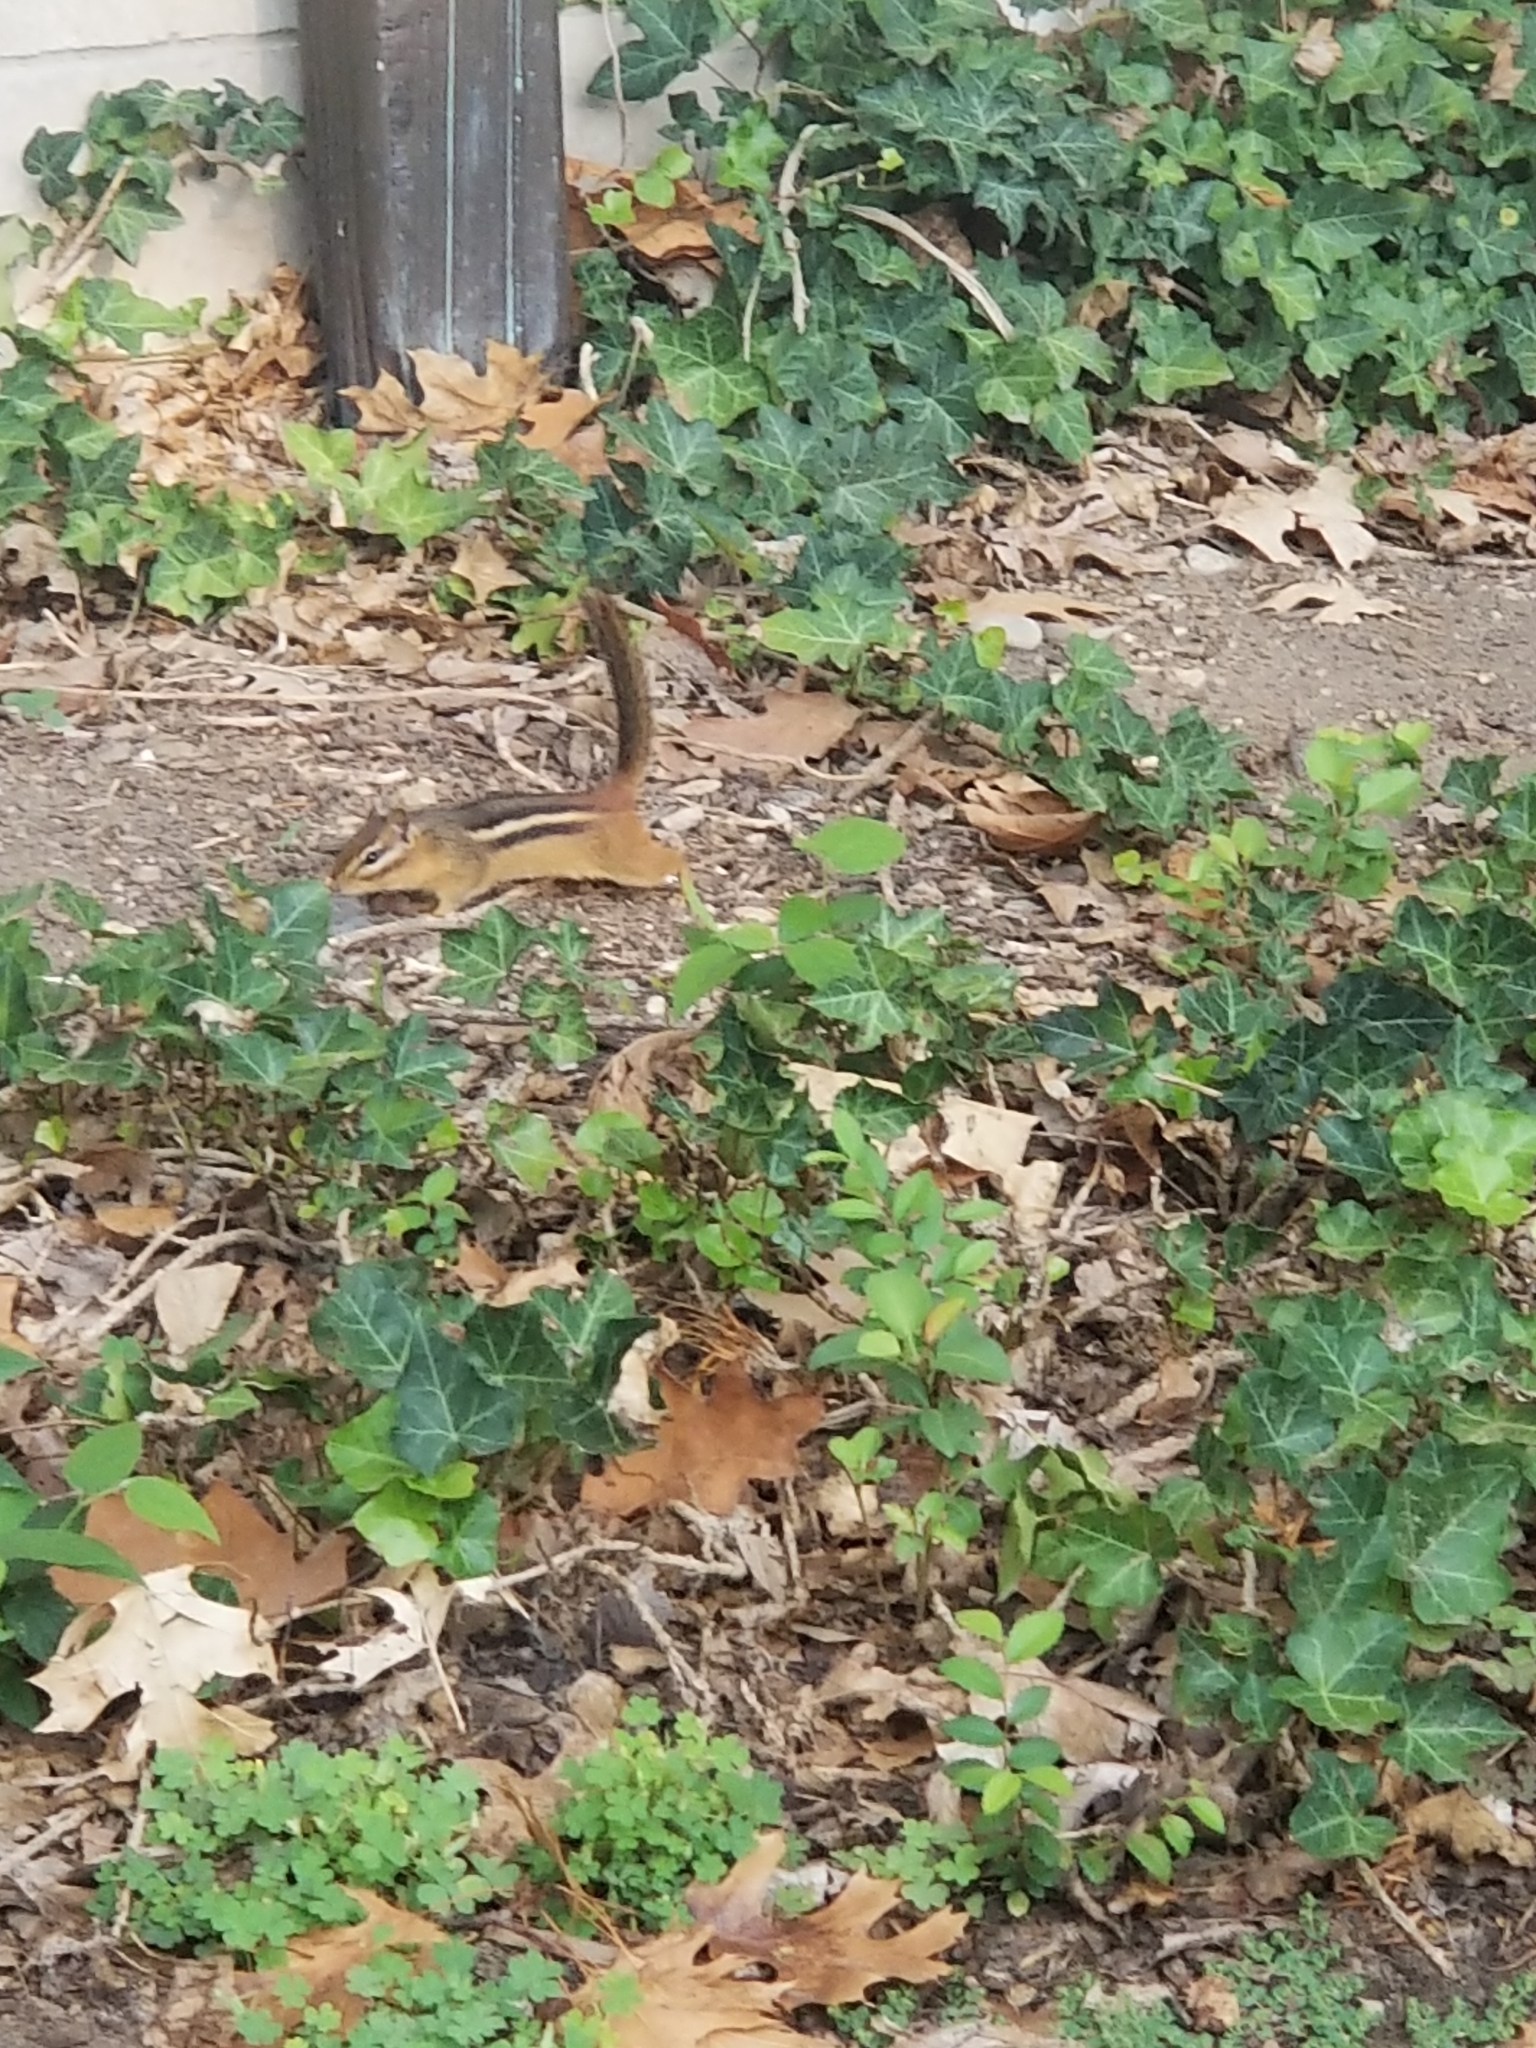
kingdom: Animalia
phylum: Chordata
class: Mammalia
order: Rodentia
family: Sciuridae
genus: Tamias
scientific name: Tamias striatus
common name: Eastern chipmunk
